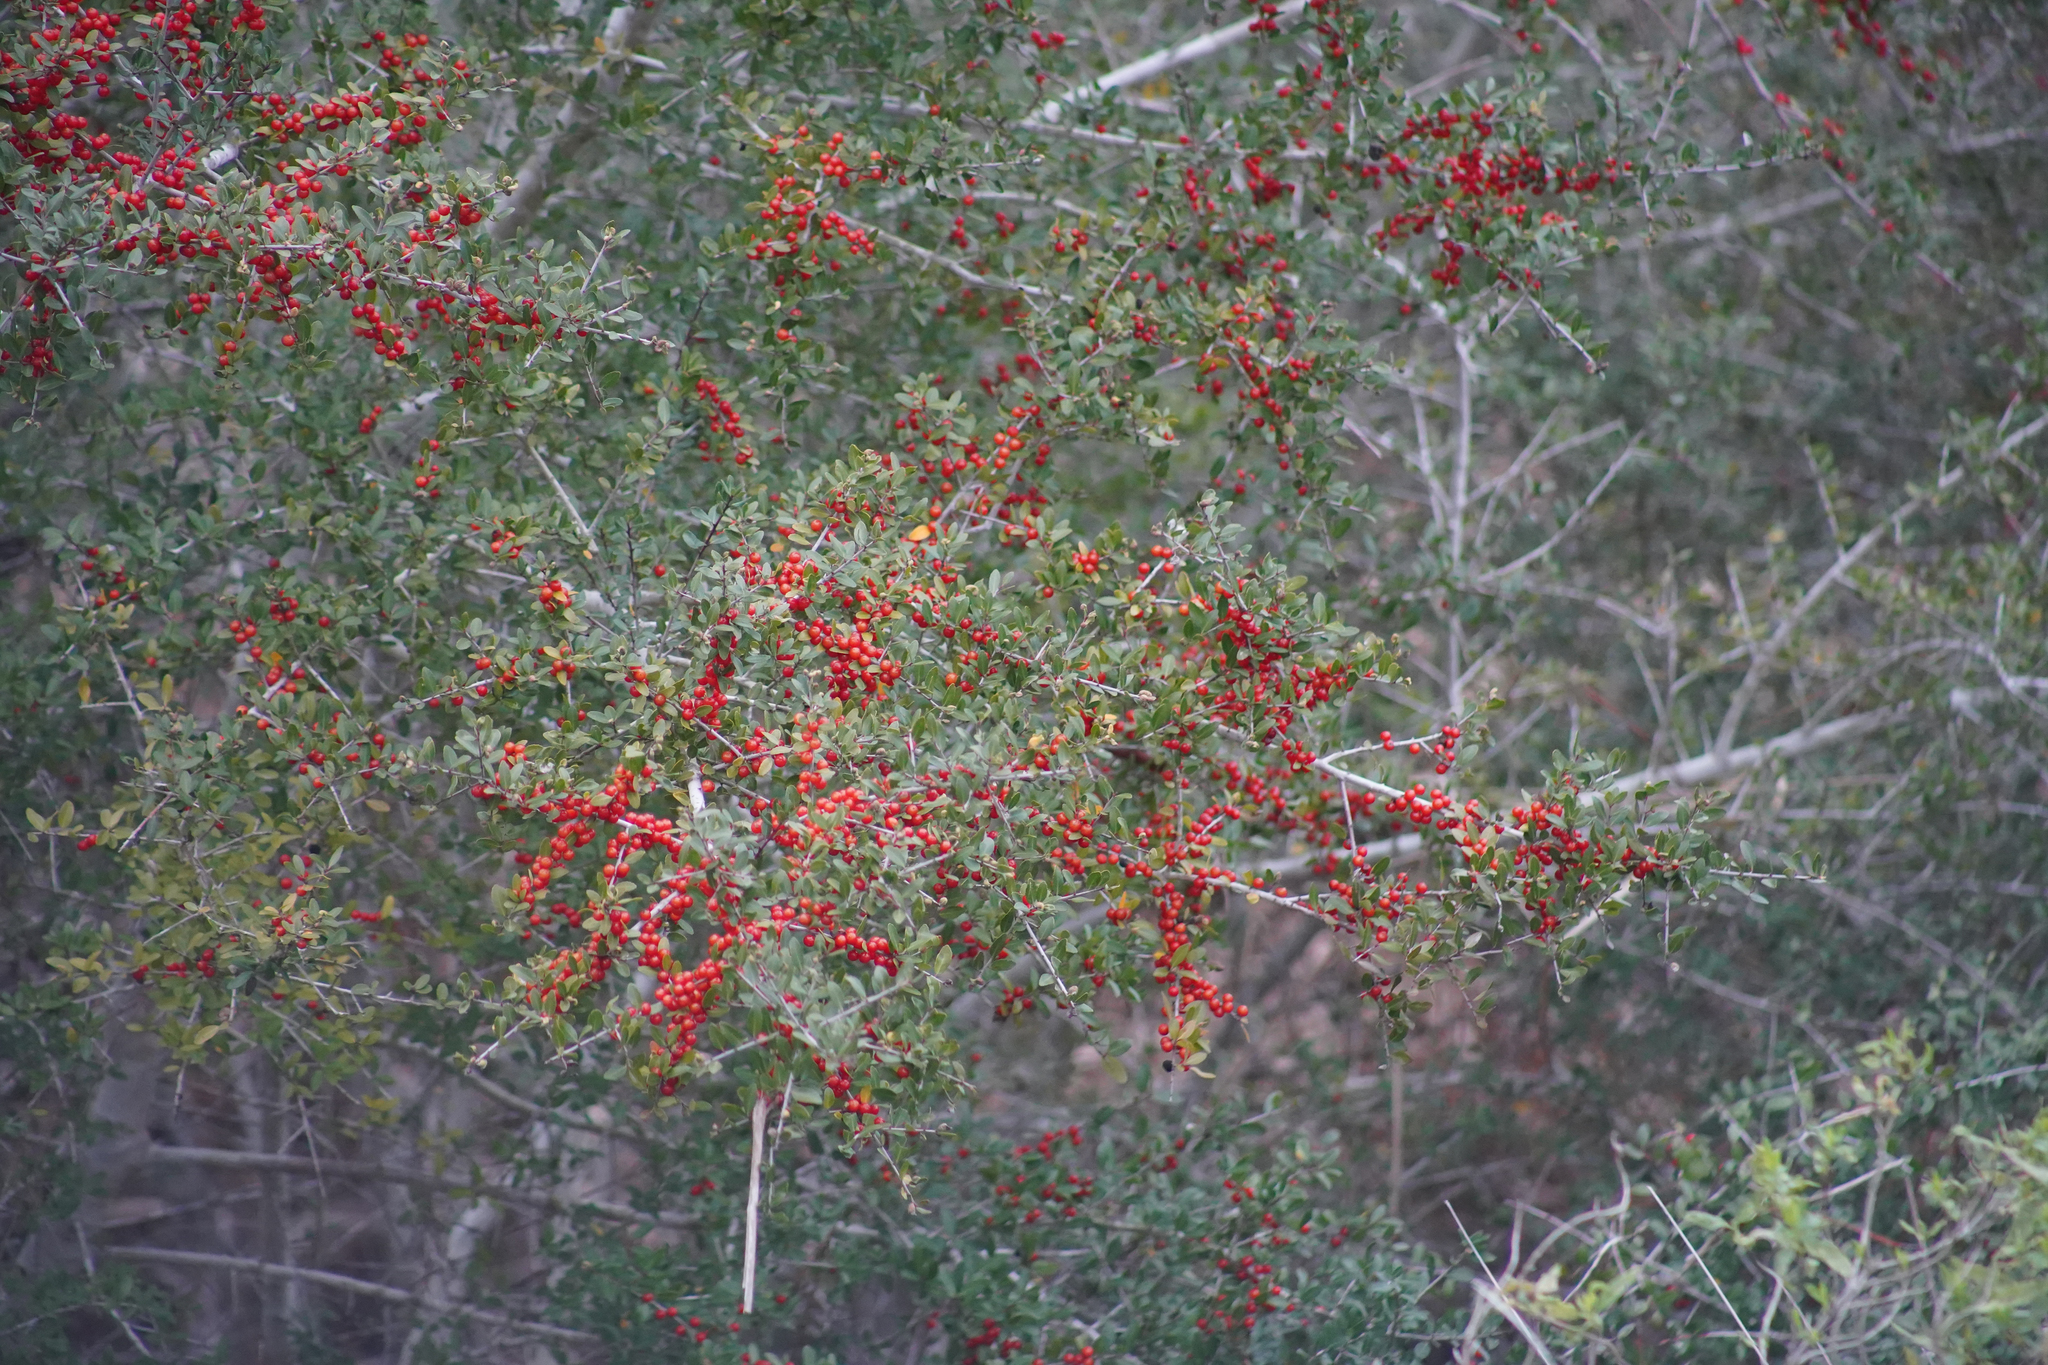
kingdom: Plantae
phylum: Tracheophyta
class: Magnoliopsida
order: Aquifoliales
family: Aquifoliaceae
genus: Ilex
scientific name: Ilex vomitoria
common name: Yaupon holly
